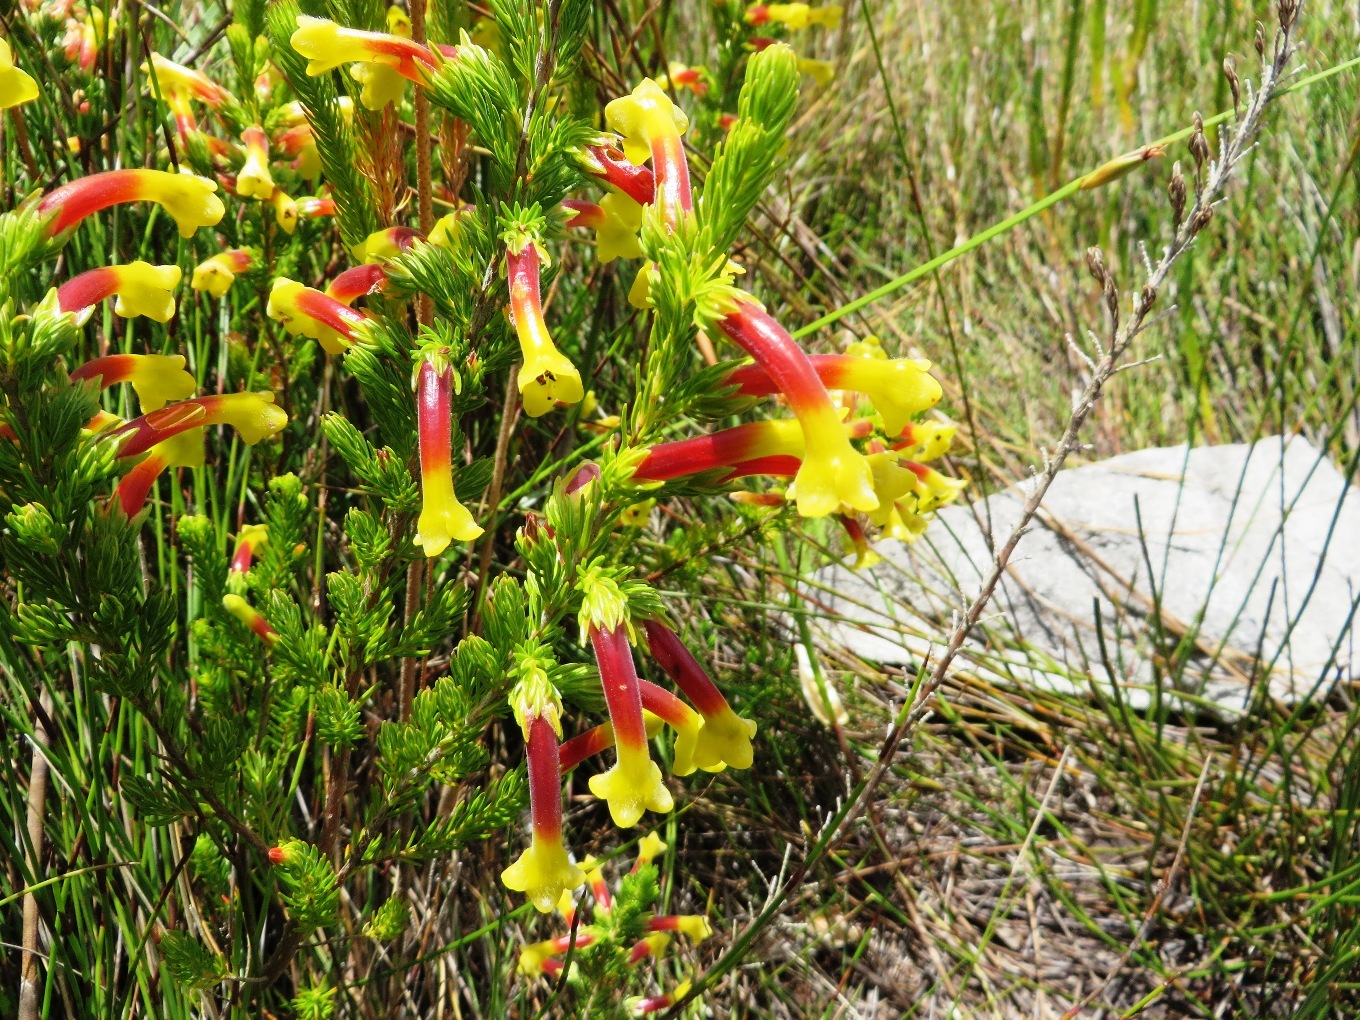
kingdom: Plantae
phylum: Tracheophyta
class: Magnoliopsida
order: Ericales
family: Ericaceae
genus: Erica
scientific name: Erica macowanii
